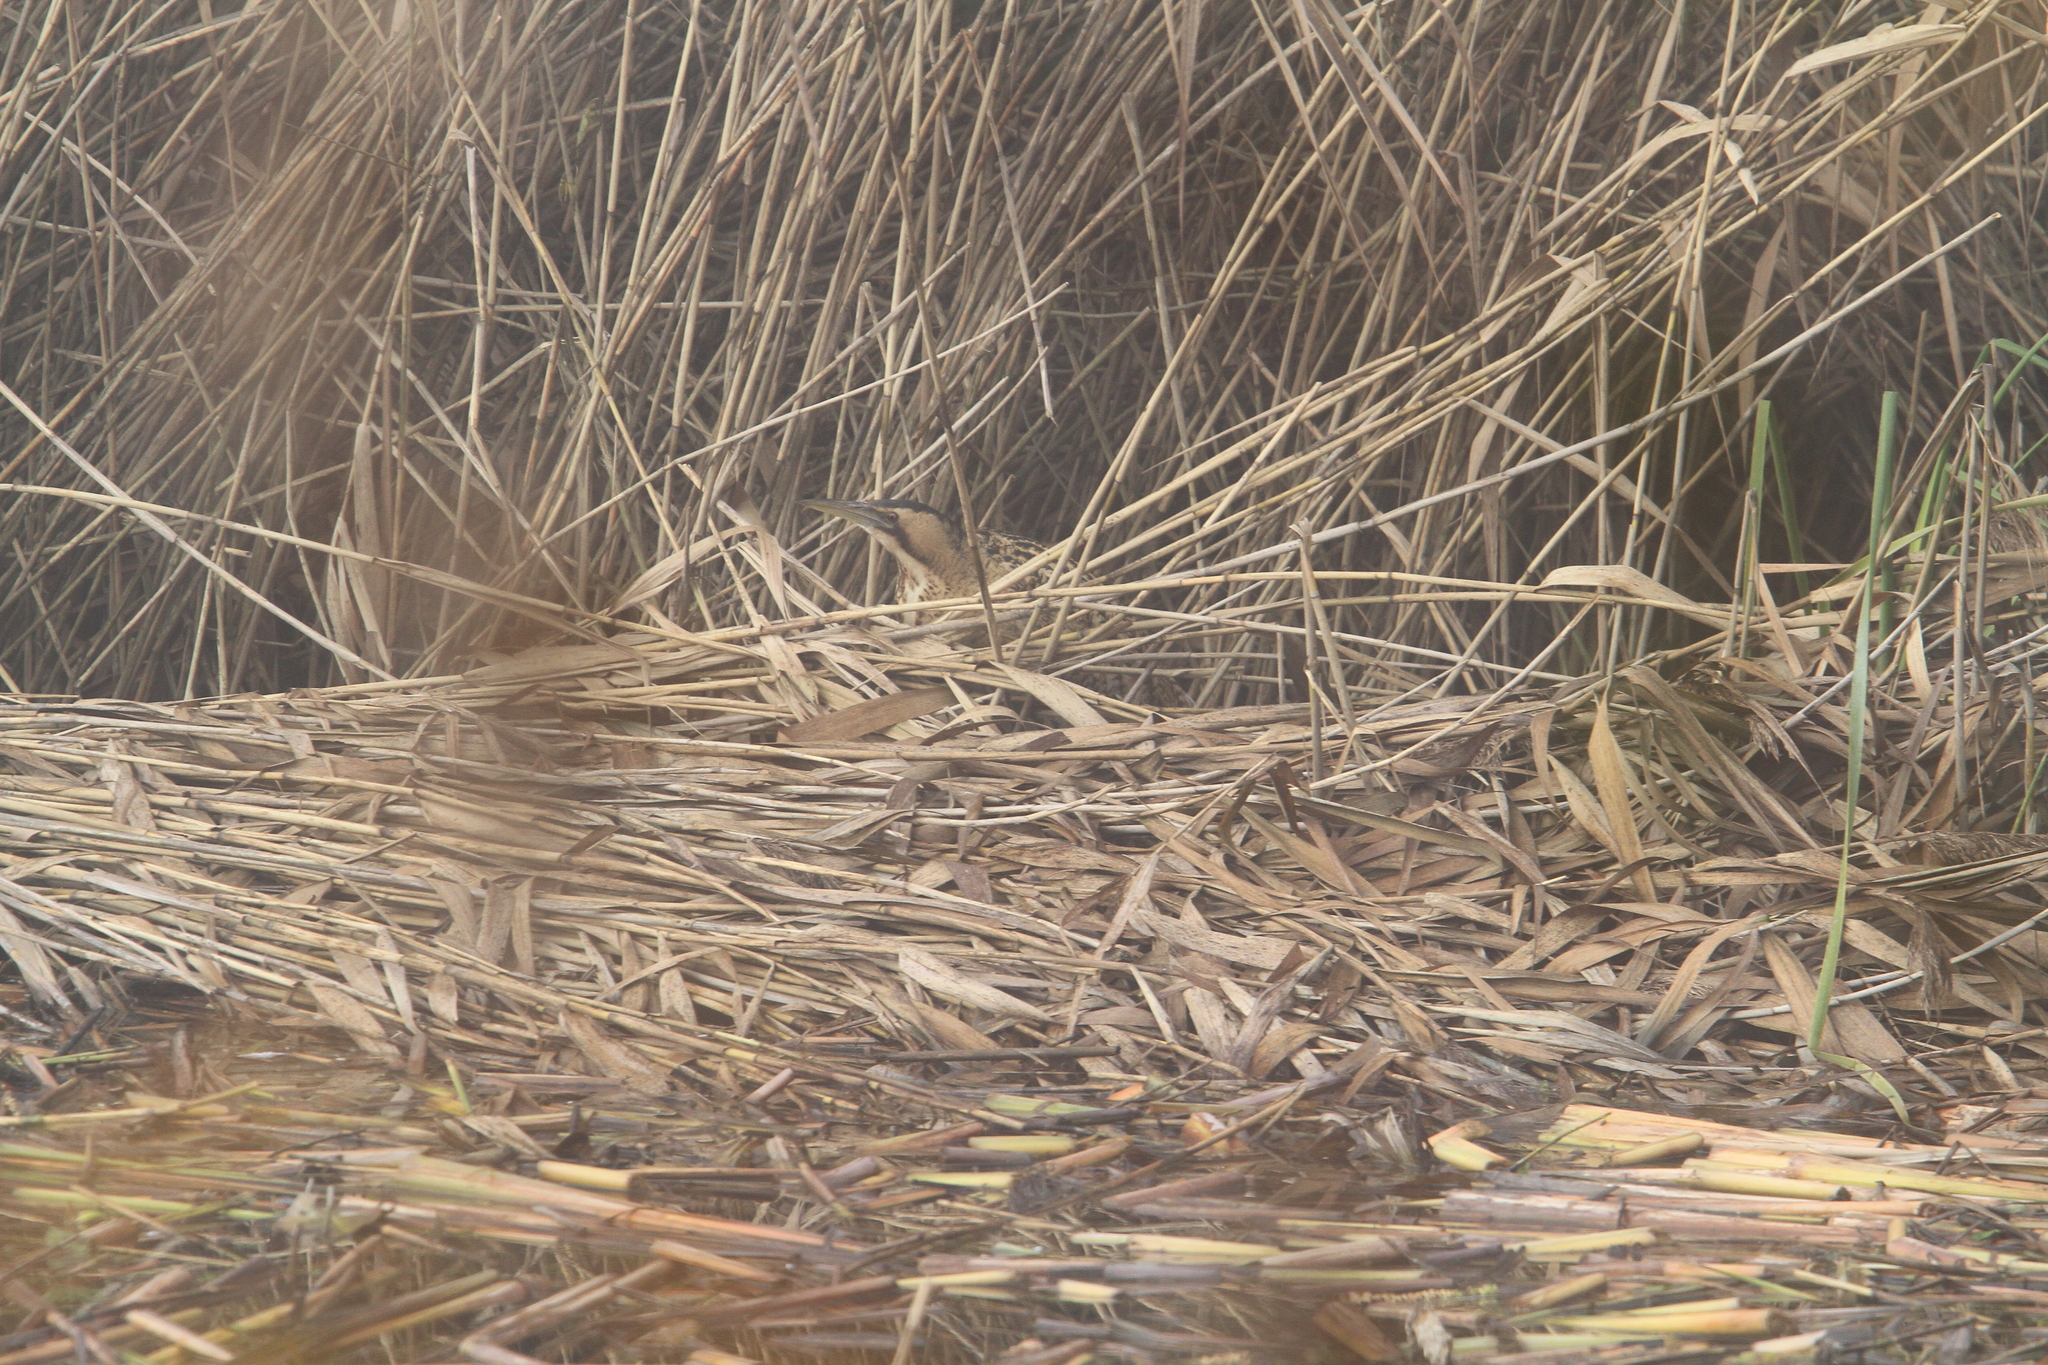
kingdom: Animalia
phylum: Chordata
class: Aves
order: Pelecaniformes
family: Ardeidae
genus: Botaurus
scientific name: Botaurus stellaris
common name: Eurasian bittern
